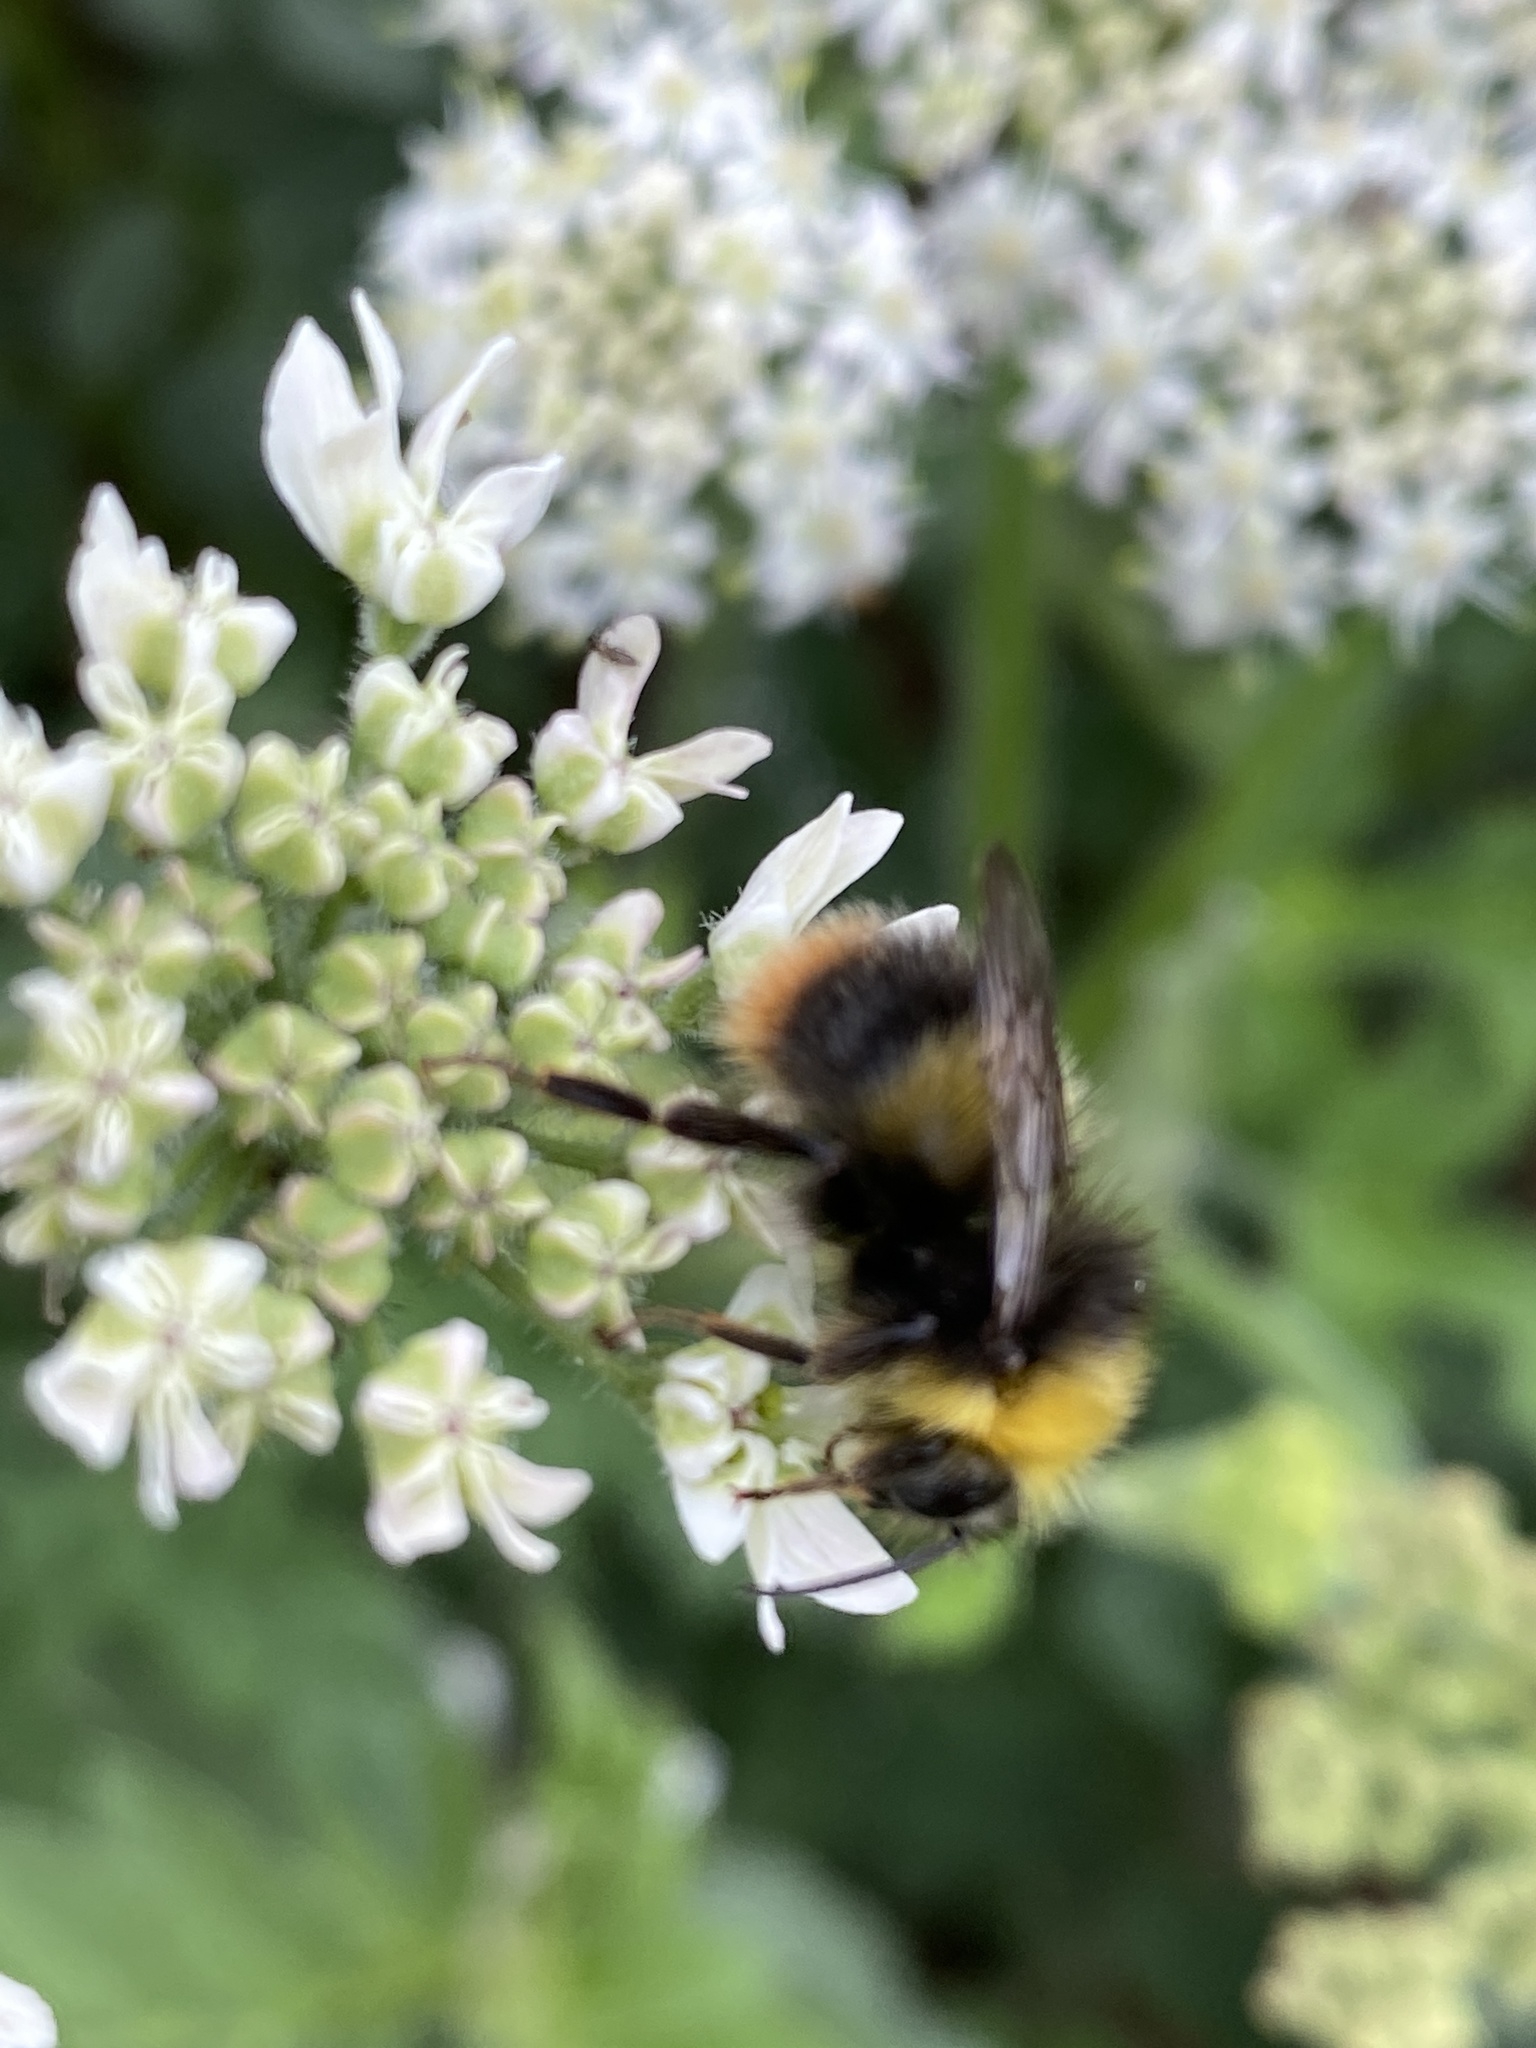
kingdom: Animalia
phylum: Arthropoda
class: Insecta
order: Hymenoptera
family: Apidae
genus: Bombus
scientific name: Bombus pratorum
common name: Early humble-bee
